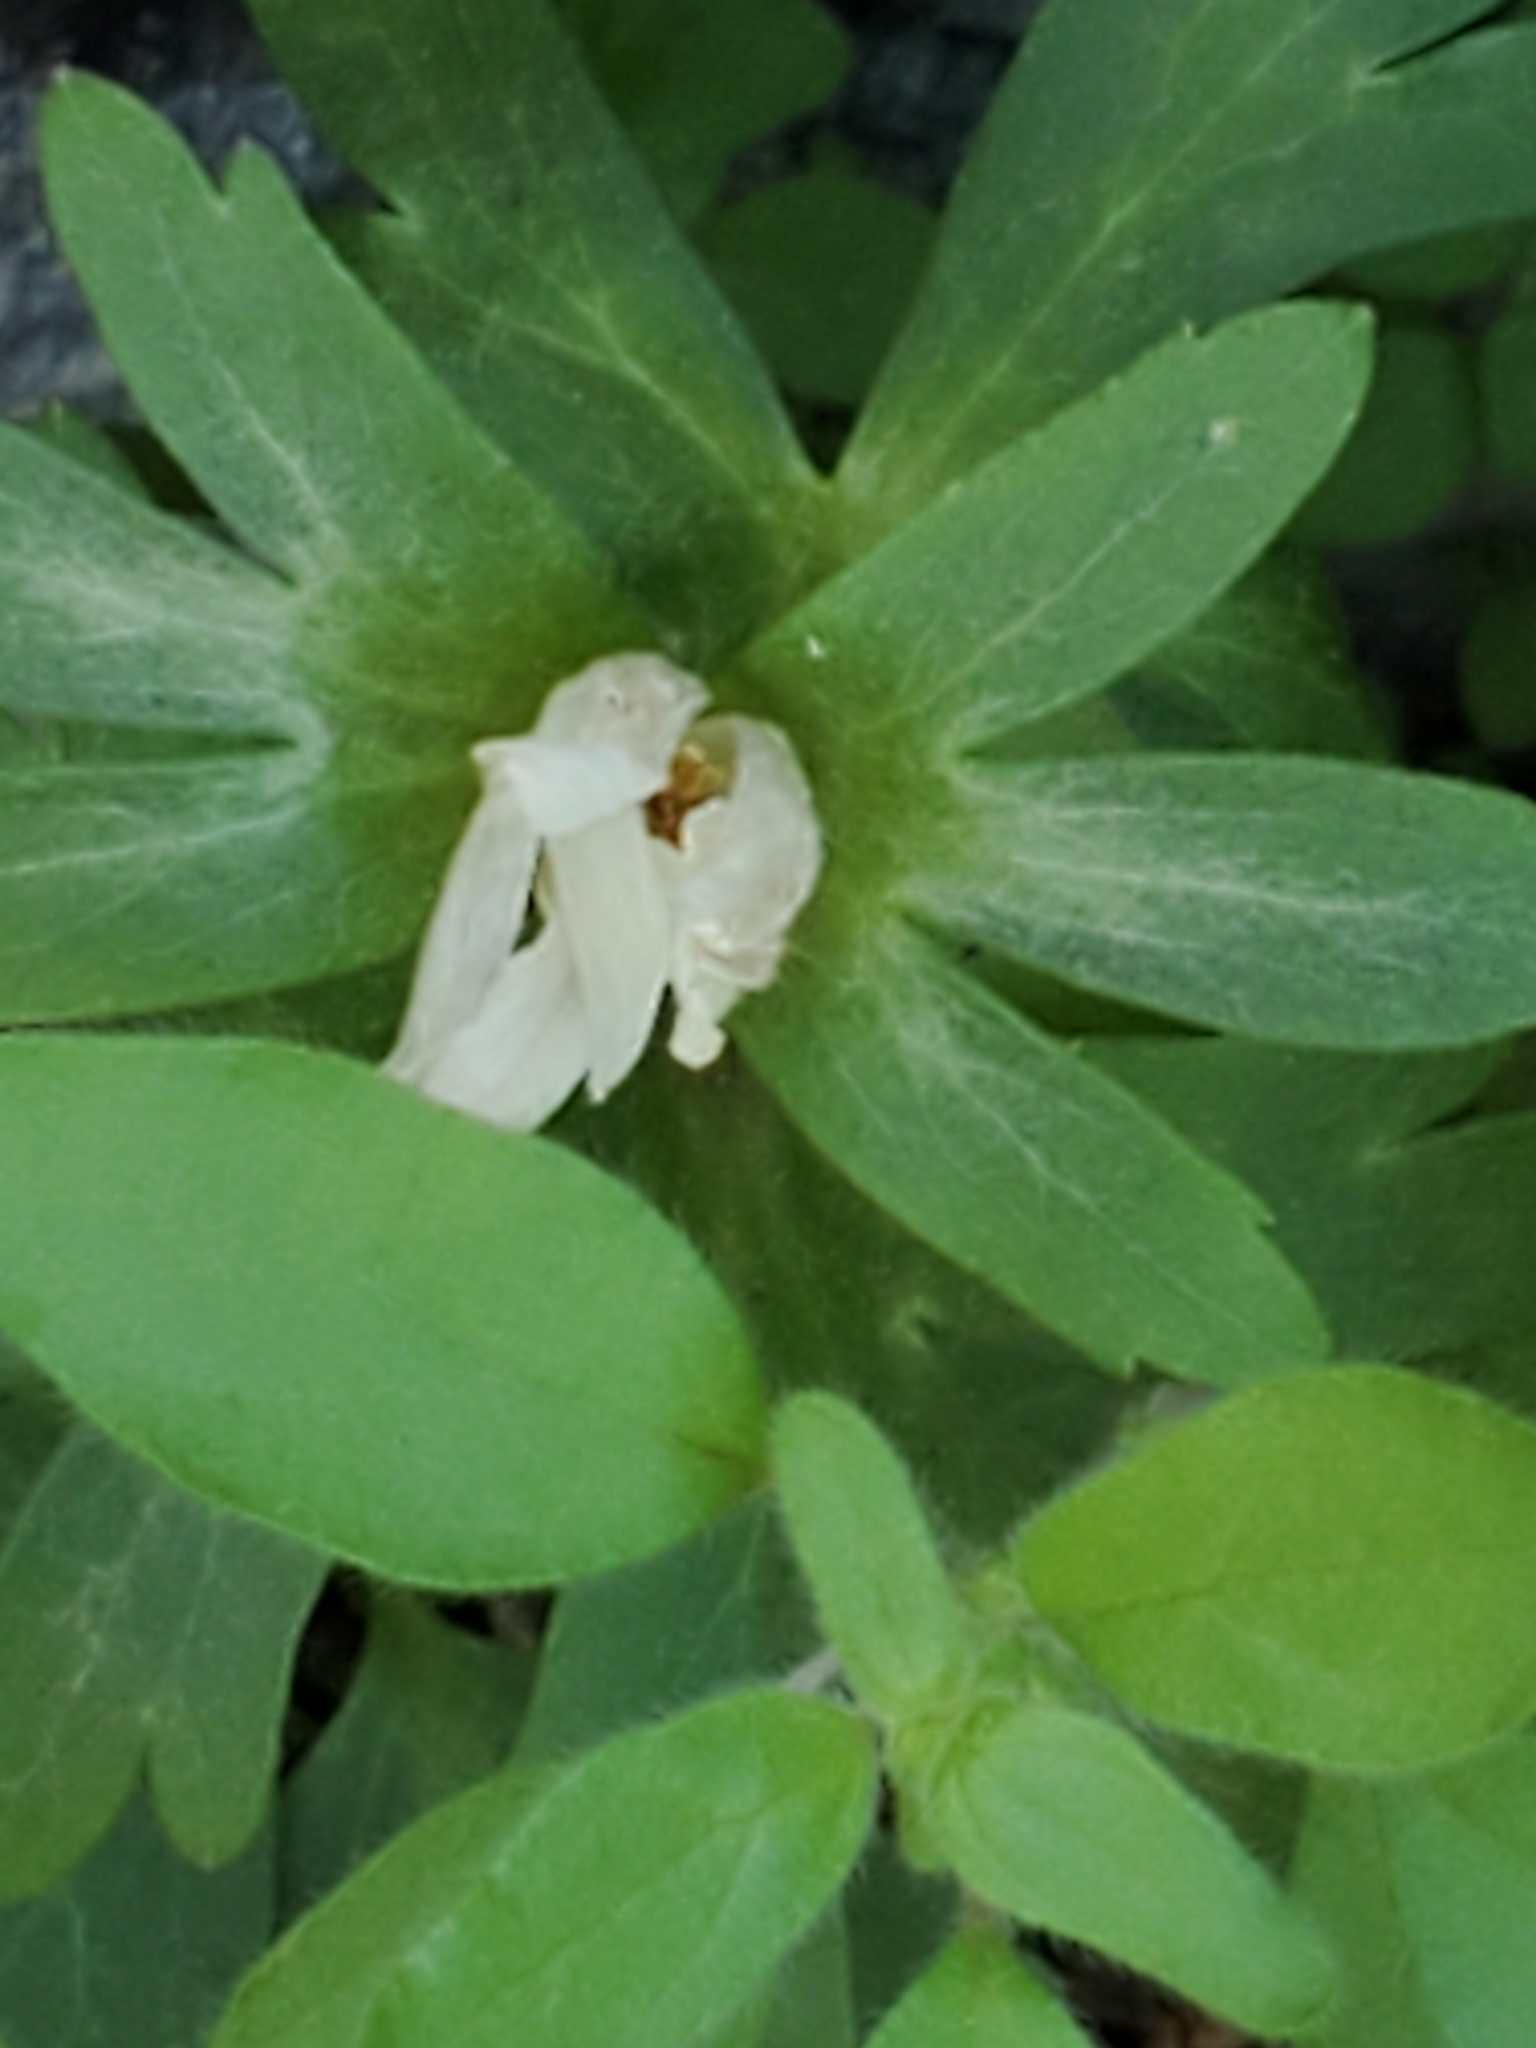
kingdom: Plantae
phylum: Tracheophyta
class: Magnoliopsida
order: Ranunculales
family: Ranunculaceae
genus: Anemone
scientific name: Anemone edwardsiana
